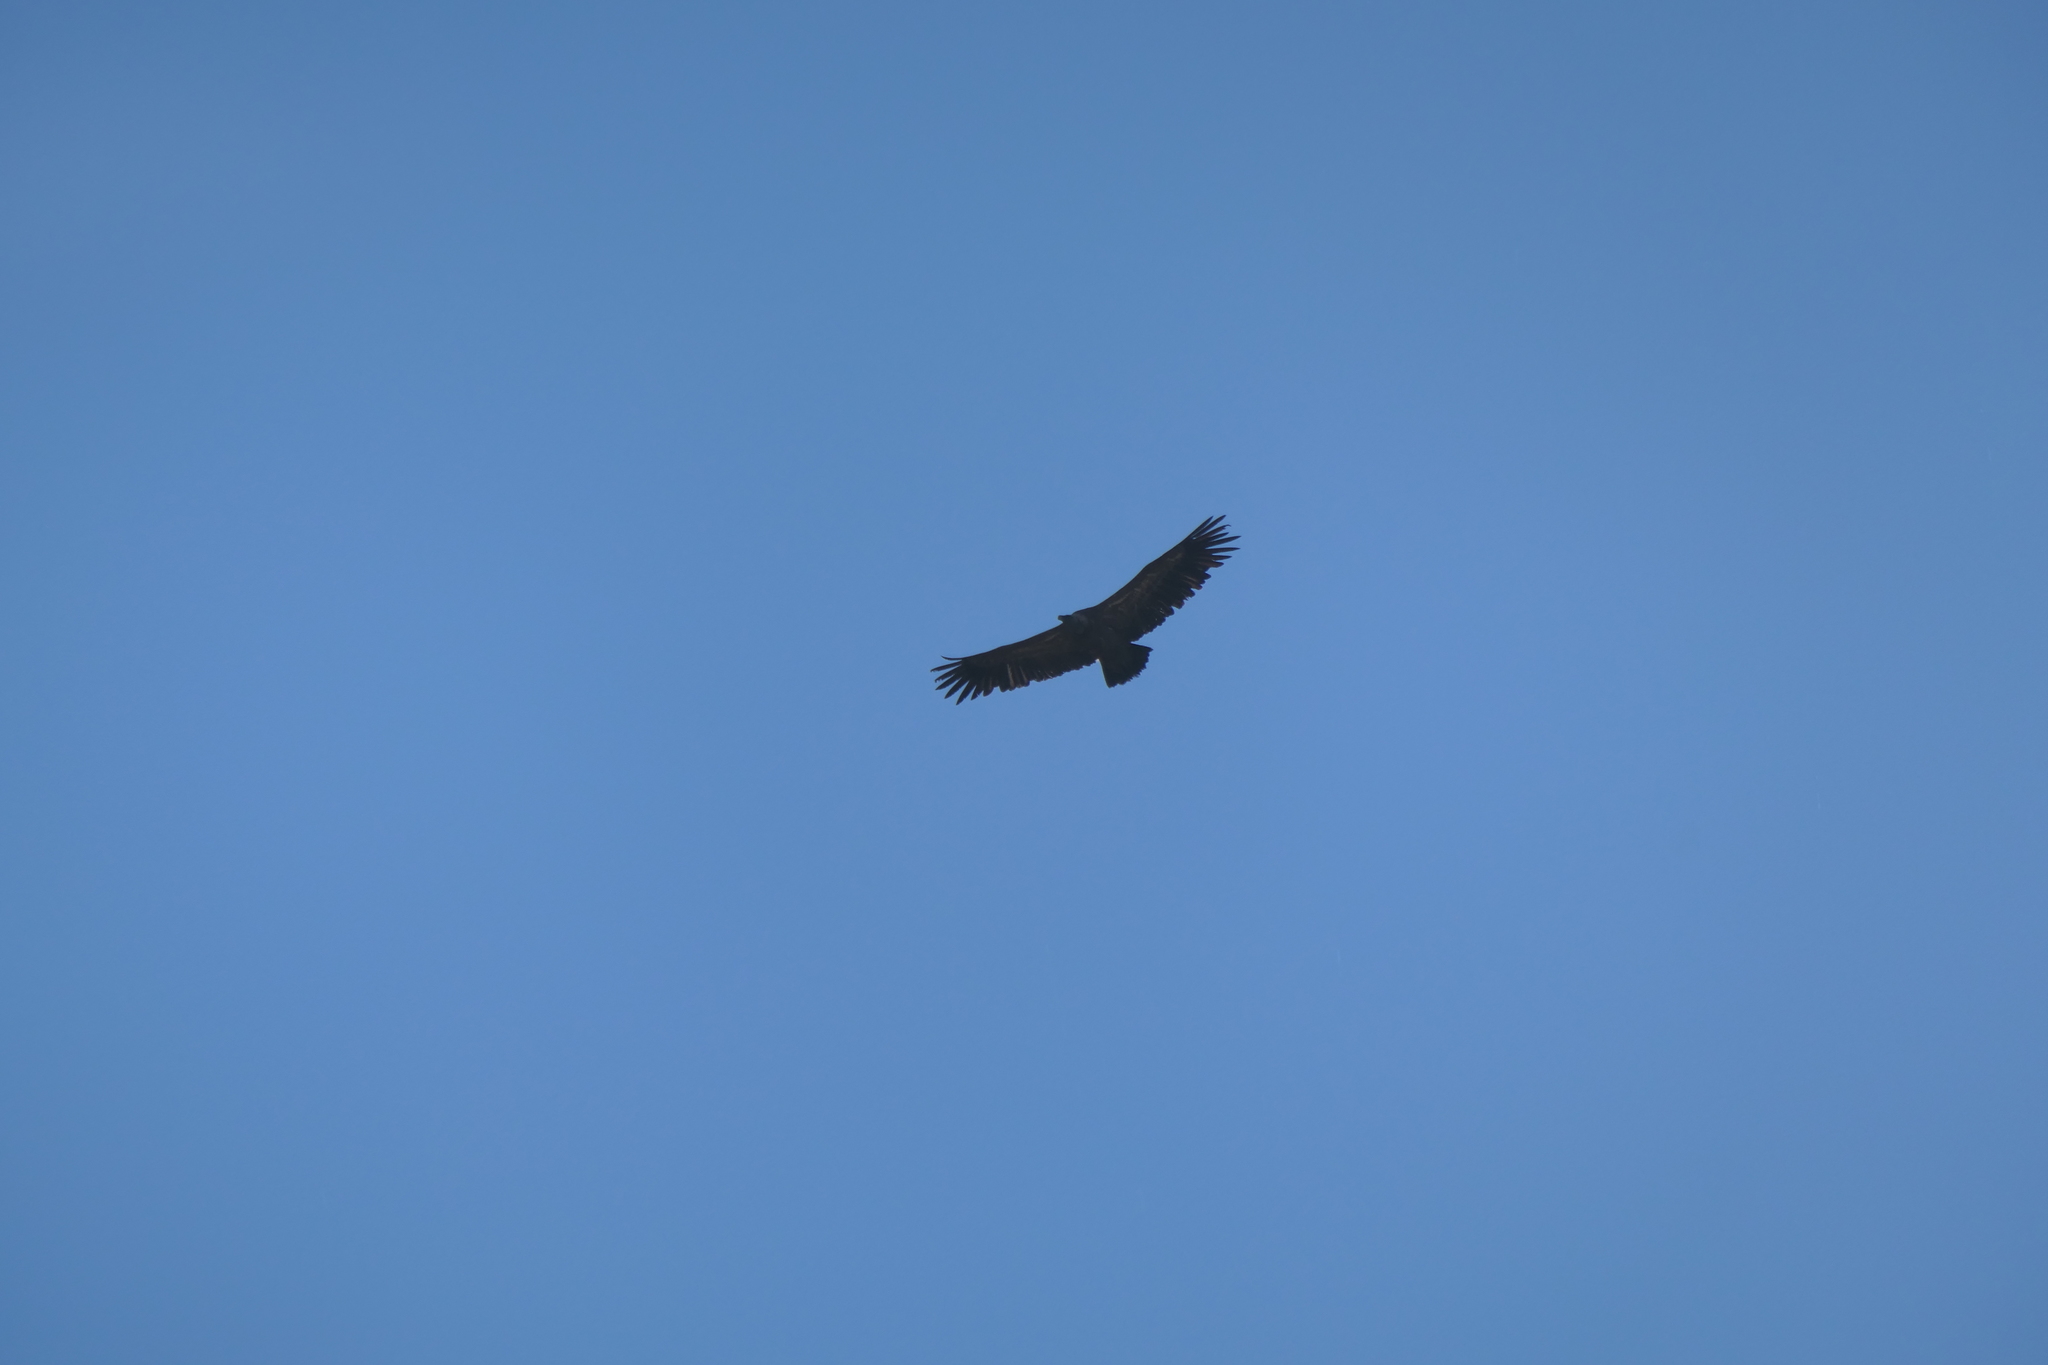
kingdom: Animalia
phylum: Chordata
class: Aves
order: Accipitriformes
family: Accipitridae
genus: Gyps
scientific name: Gyps fulvus
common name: Griffon vulture
